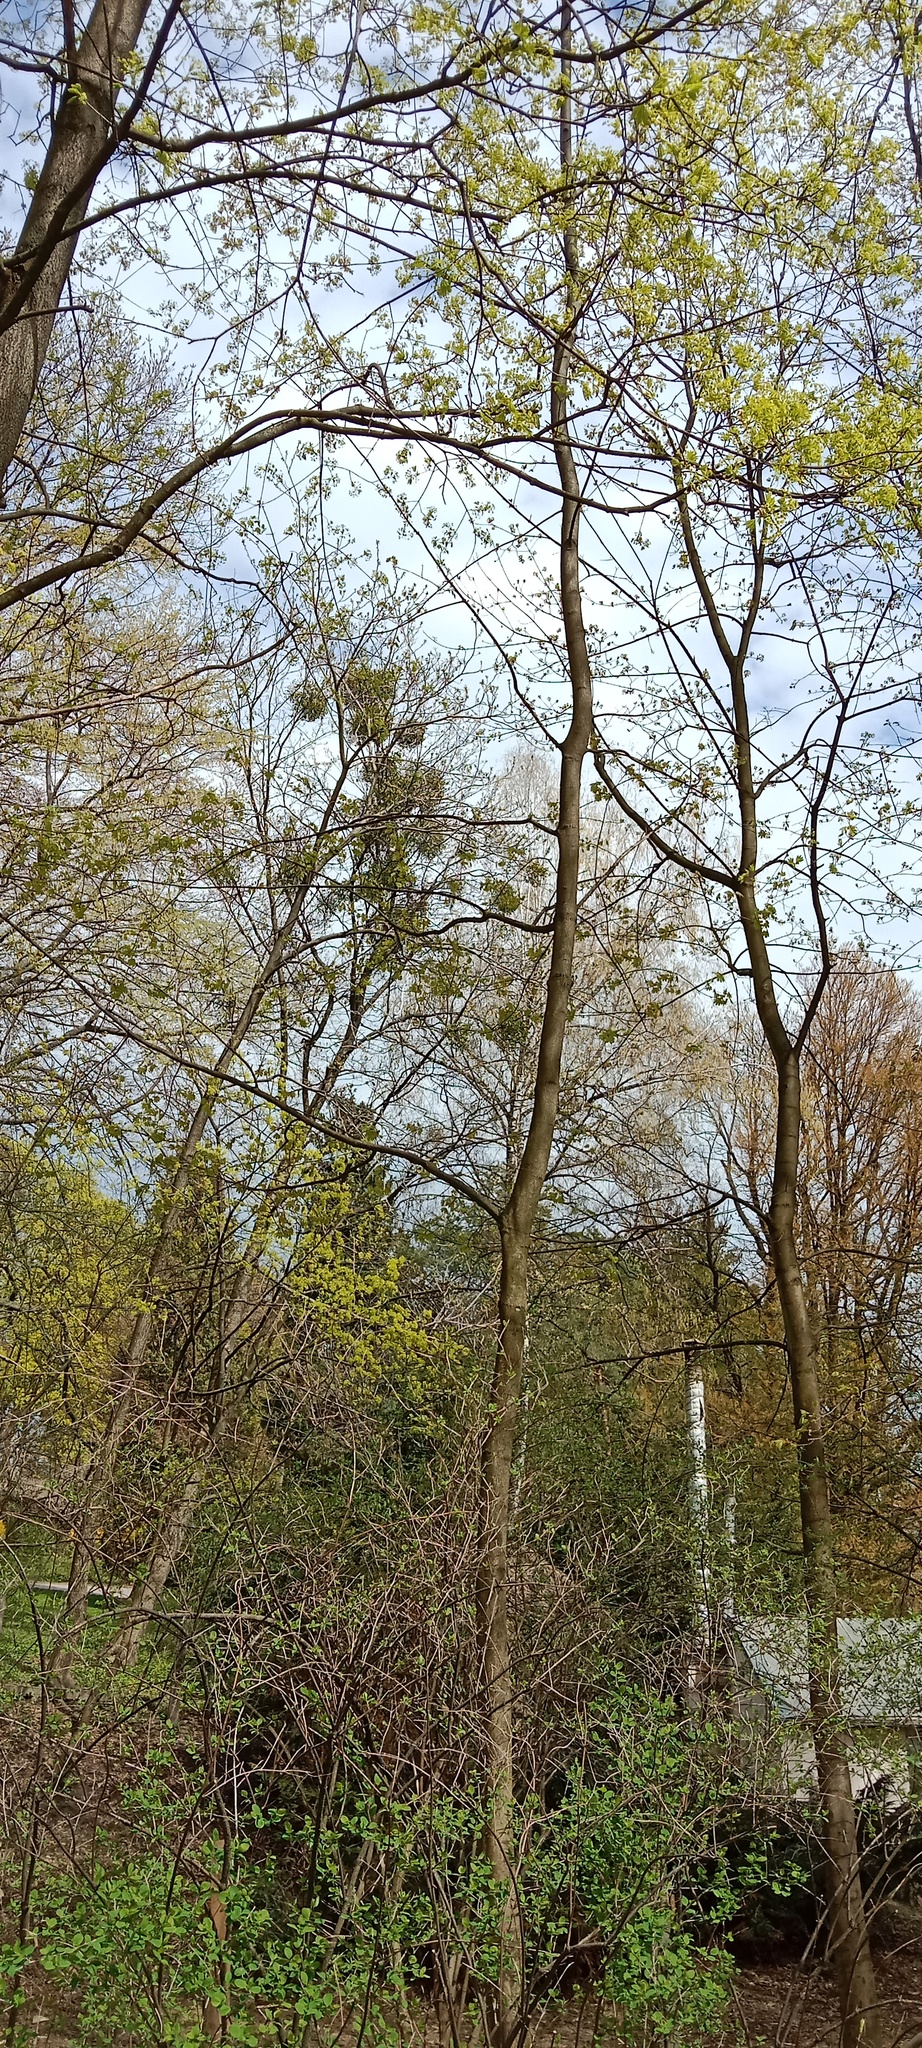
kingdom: Plantae
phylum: Tracheophyta
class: Magnoliopsida
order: Santalales
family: Viscaceae
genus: Viscum
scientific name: Viscum album
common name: Mistletoe
